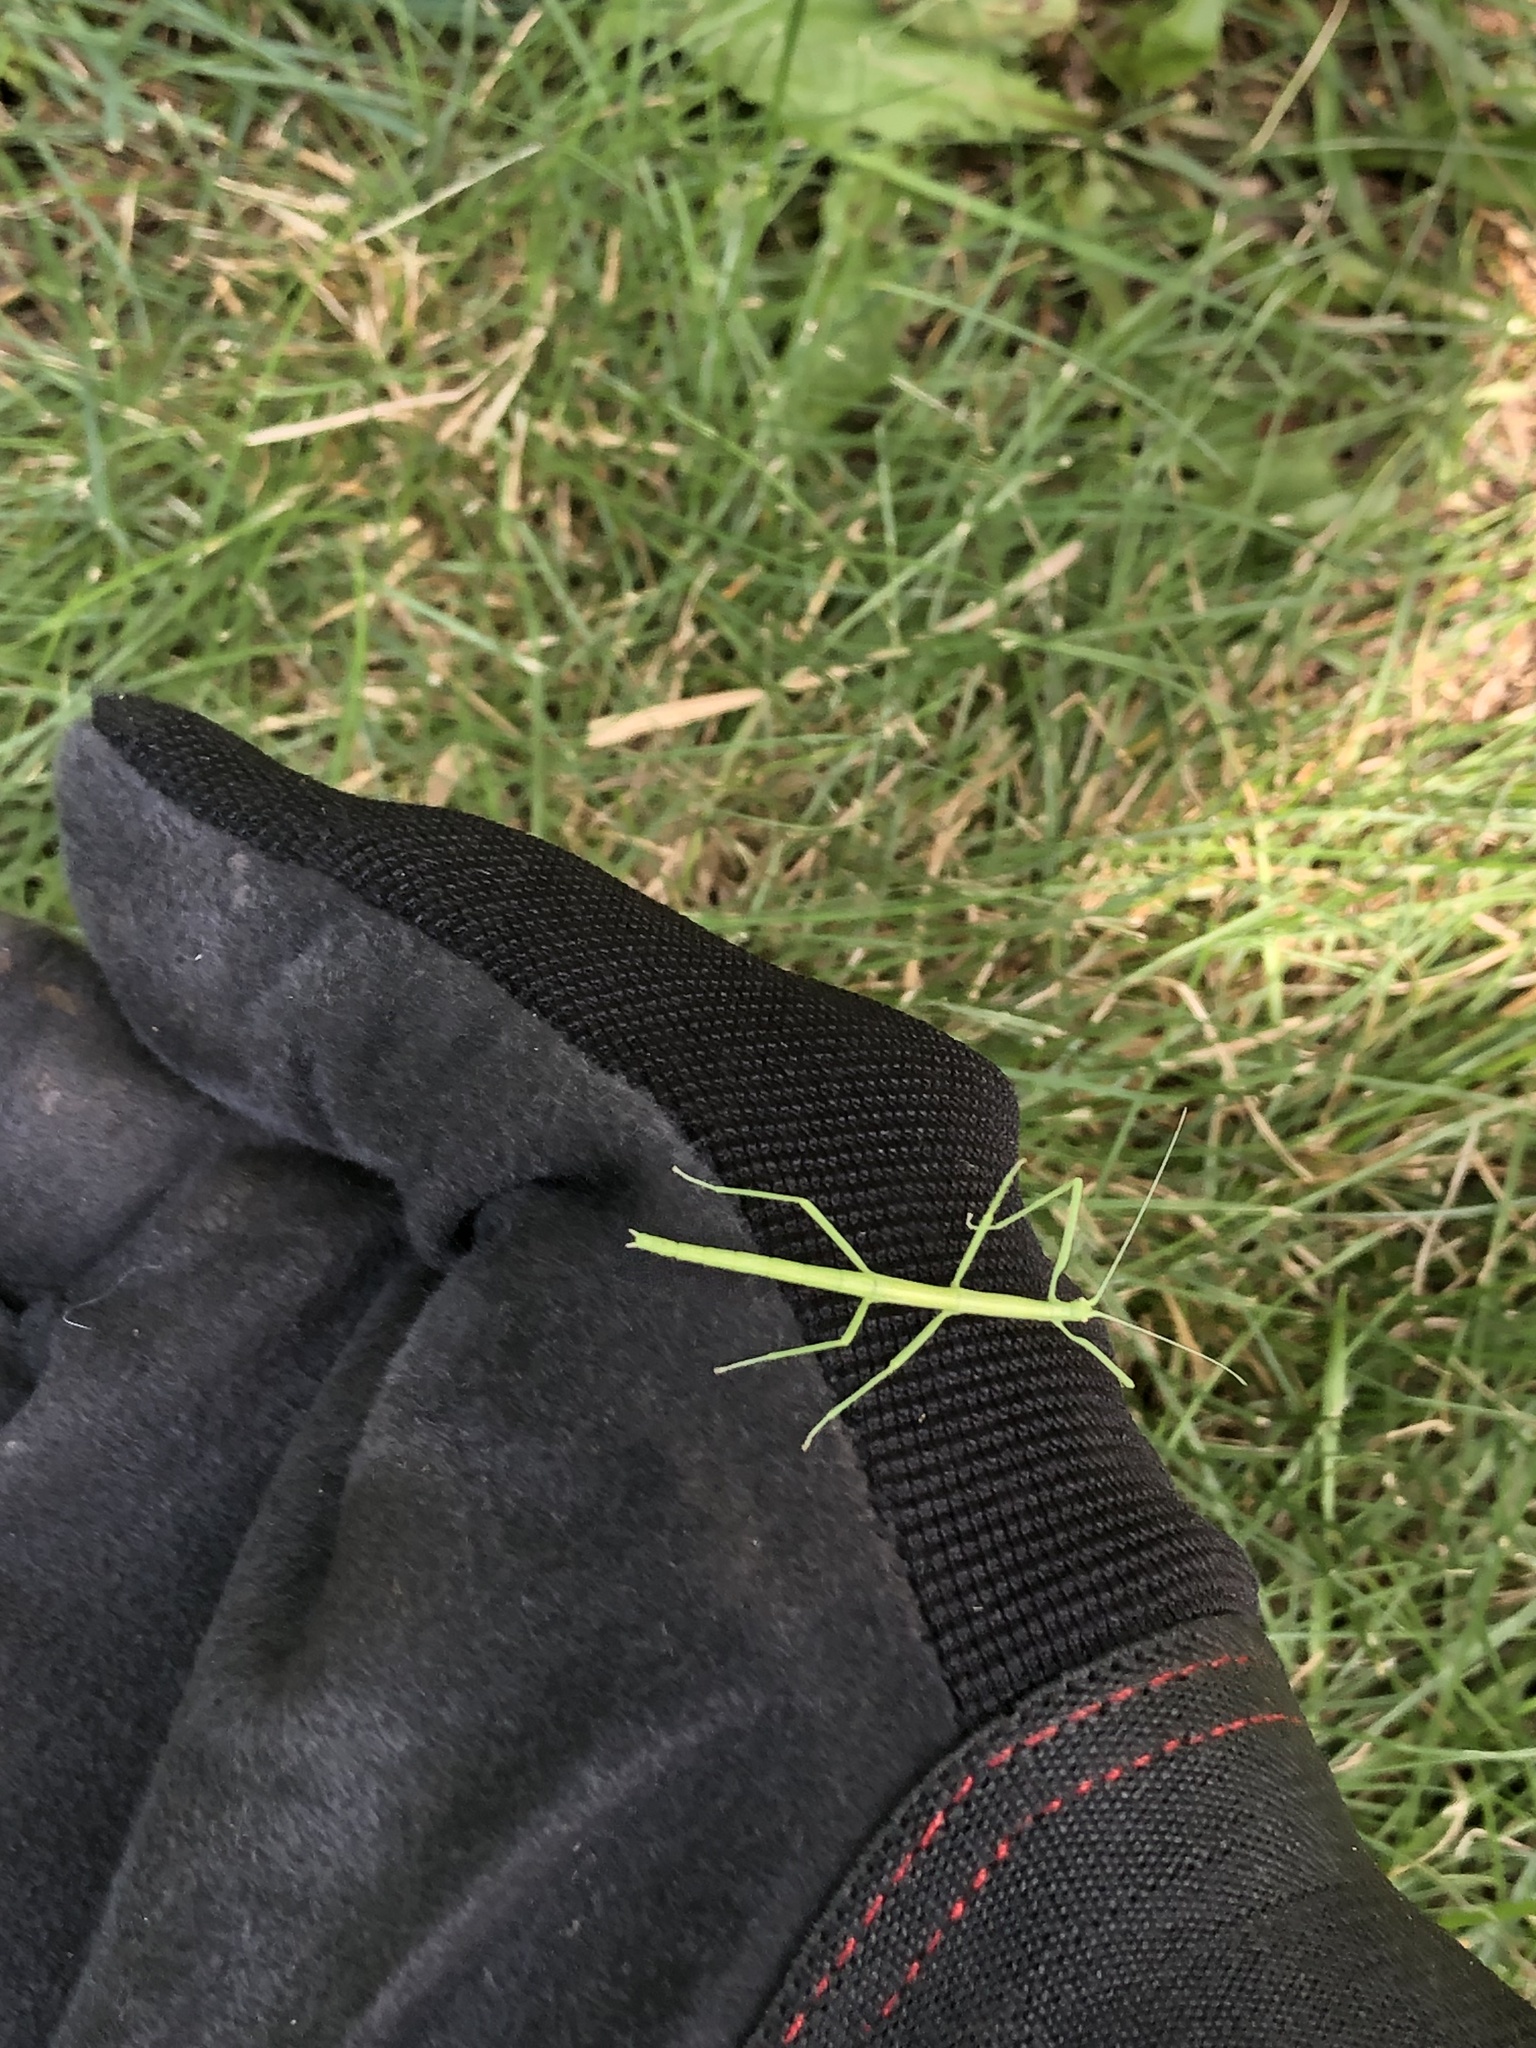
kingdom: Animalia
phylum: Arthropoda
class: Insecta
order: Phasmida
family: Diapheromeridae
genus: Diapheromera
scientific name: Diapheromera femorata
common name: Common american walkingstick
